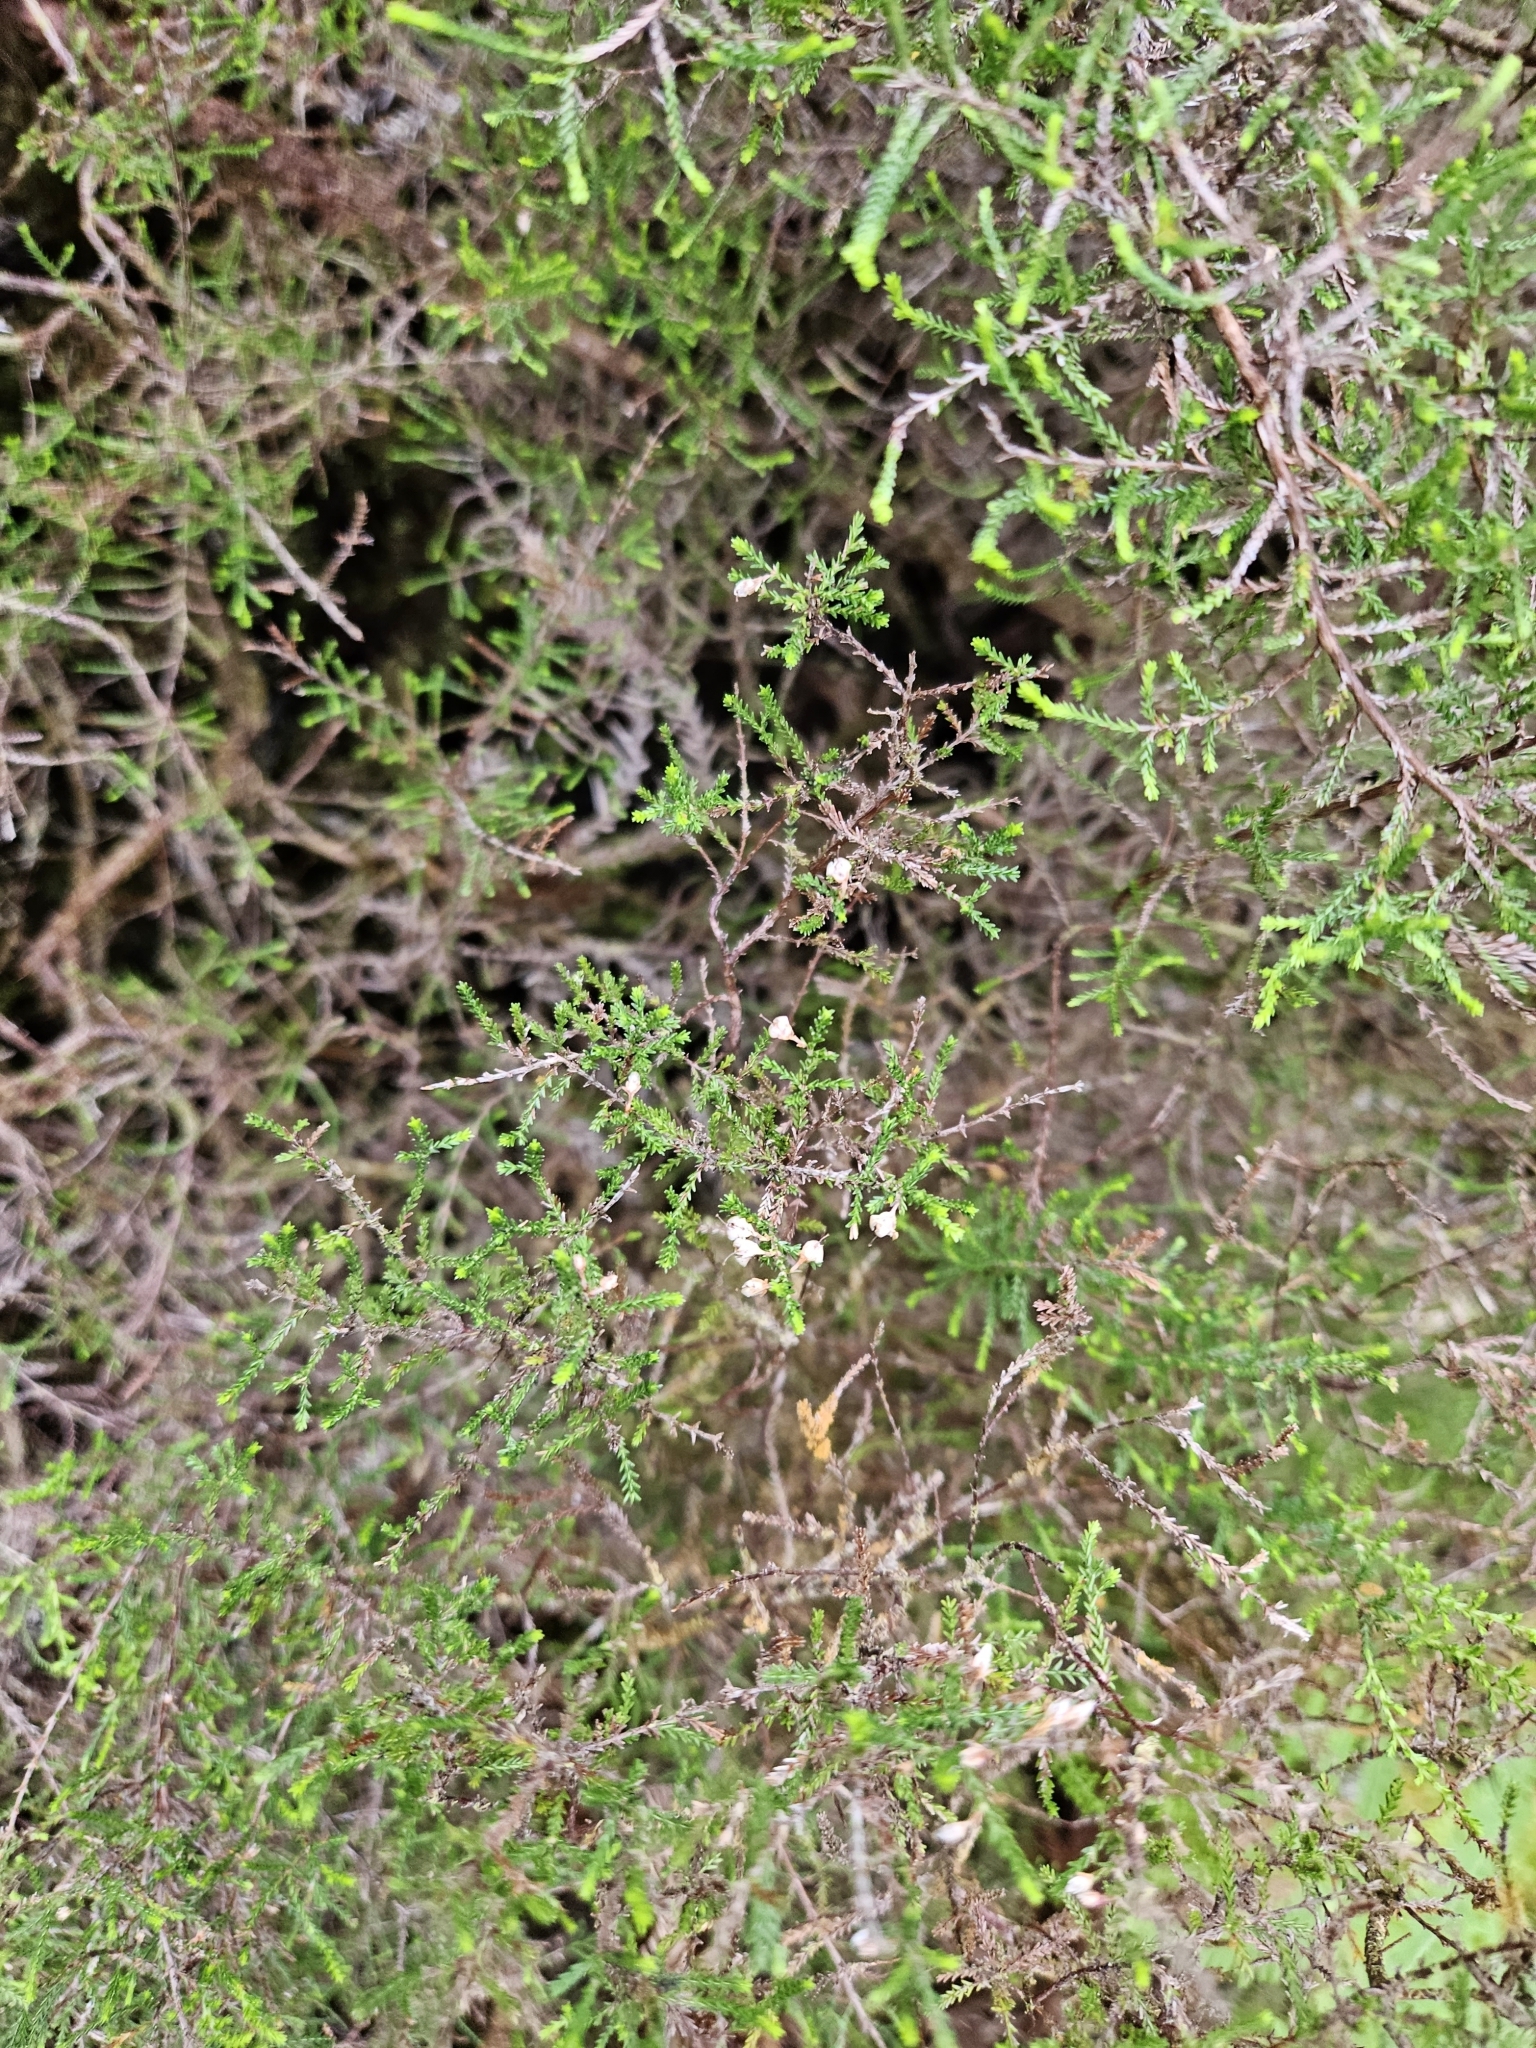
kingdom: Plantae
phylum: Tracheophyta
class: Magnoliopsida
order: Ericales
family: Ericaceae
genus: Calluna
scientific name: Calluna vulgaris
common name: Heather
